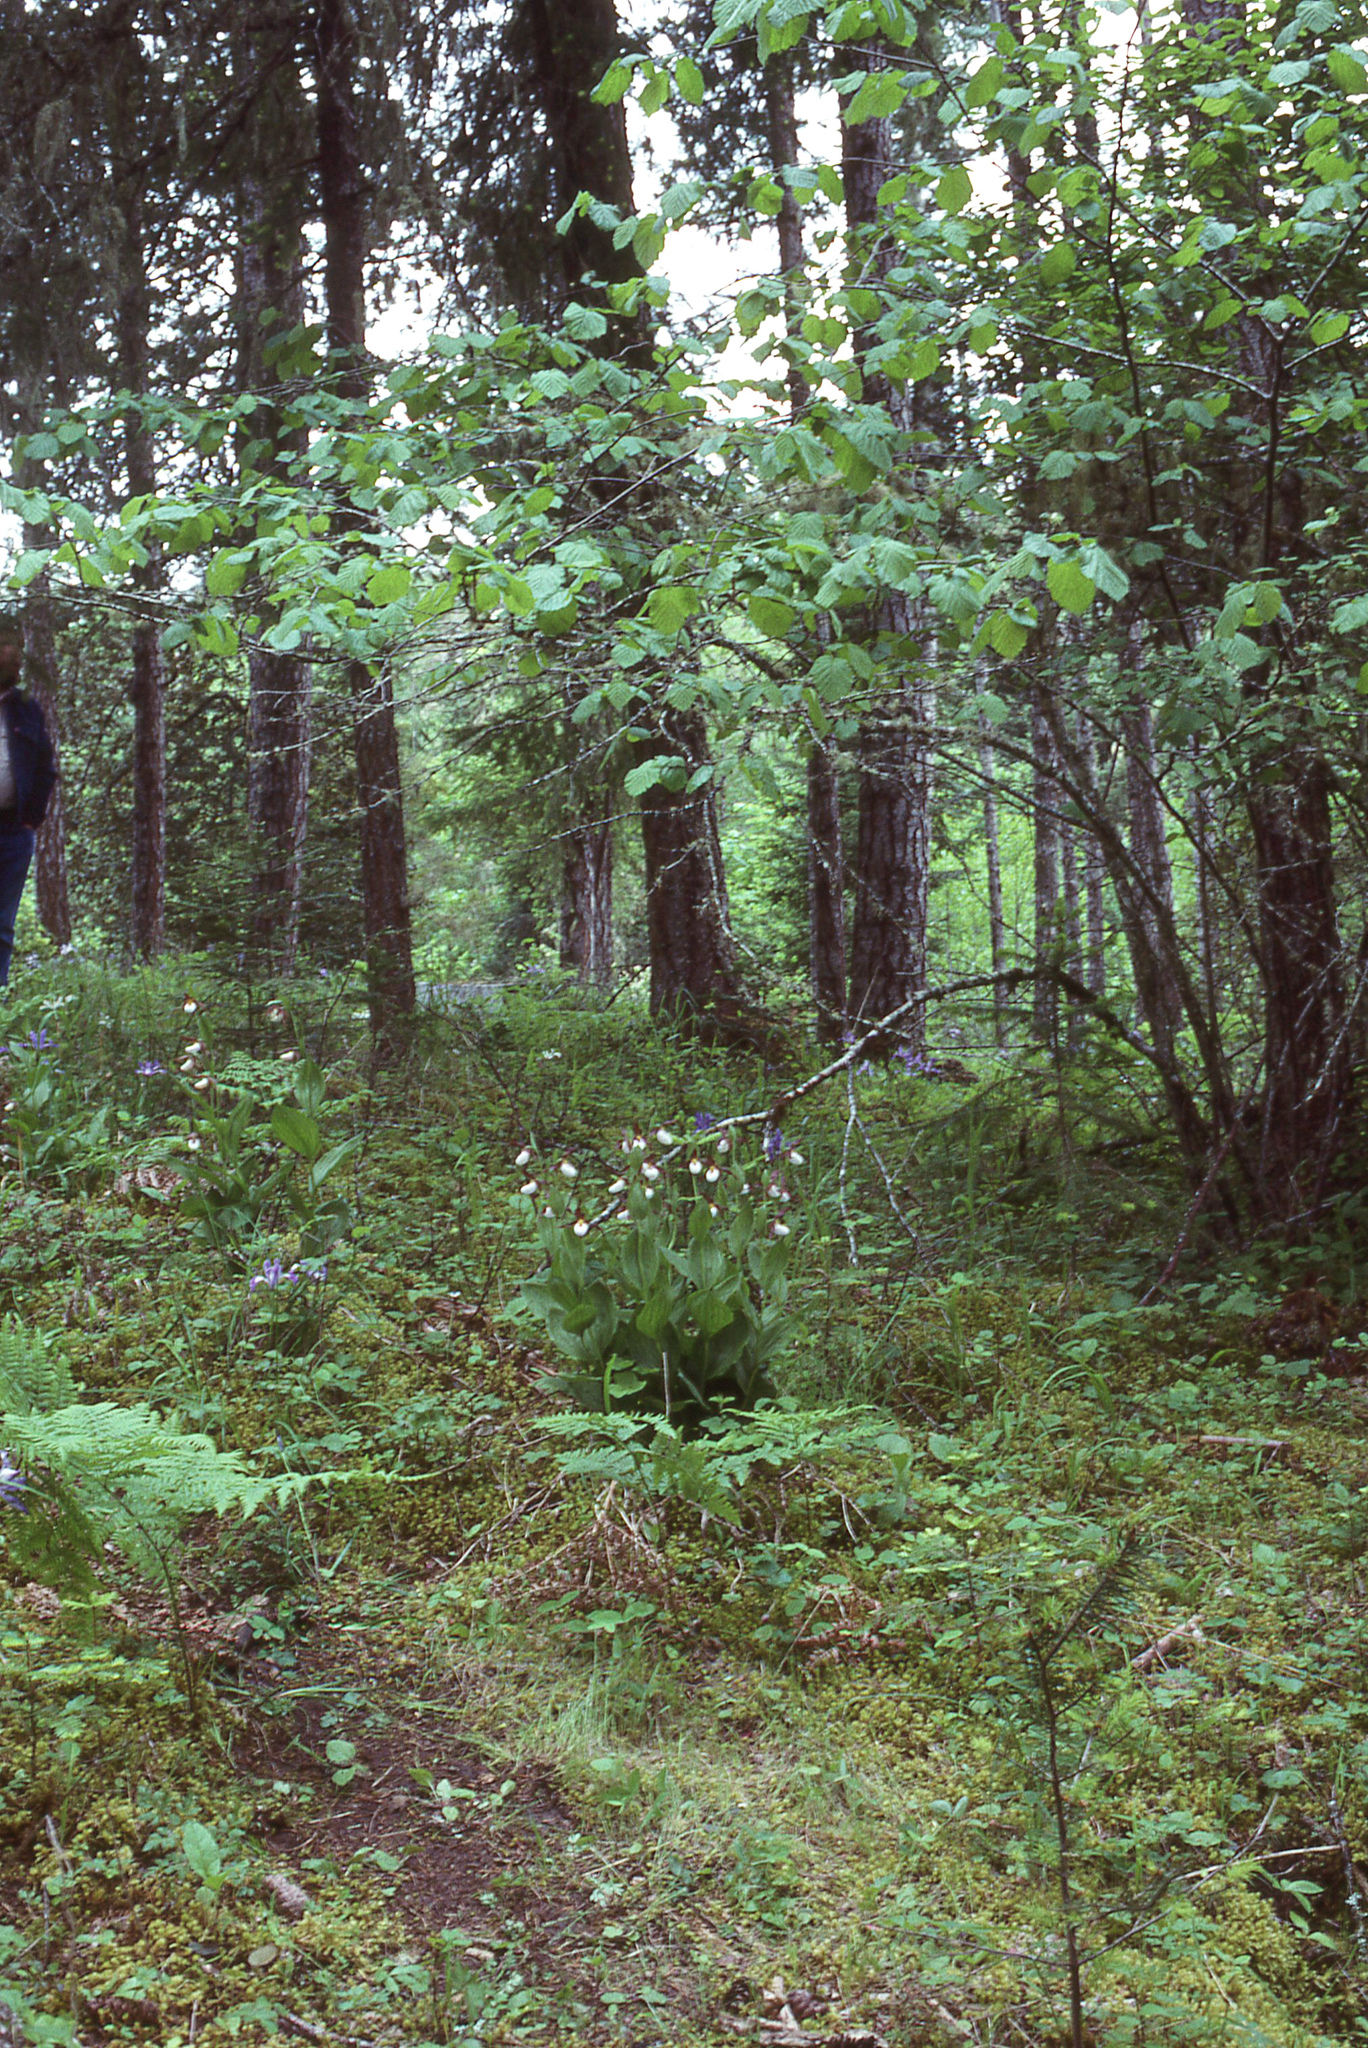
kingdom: Plantae
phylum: Tracheophyta
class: Liliopsida
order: Asparagales
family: Orchidaceae
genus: Cypripedium
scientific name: Cypripedium montanum
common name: Mountain lady's-slipper
